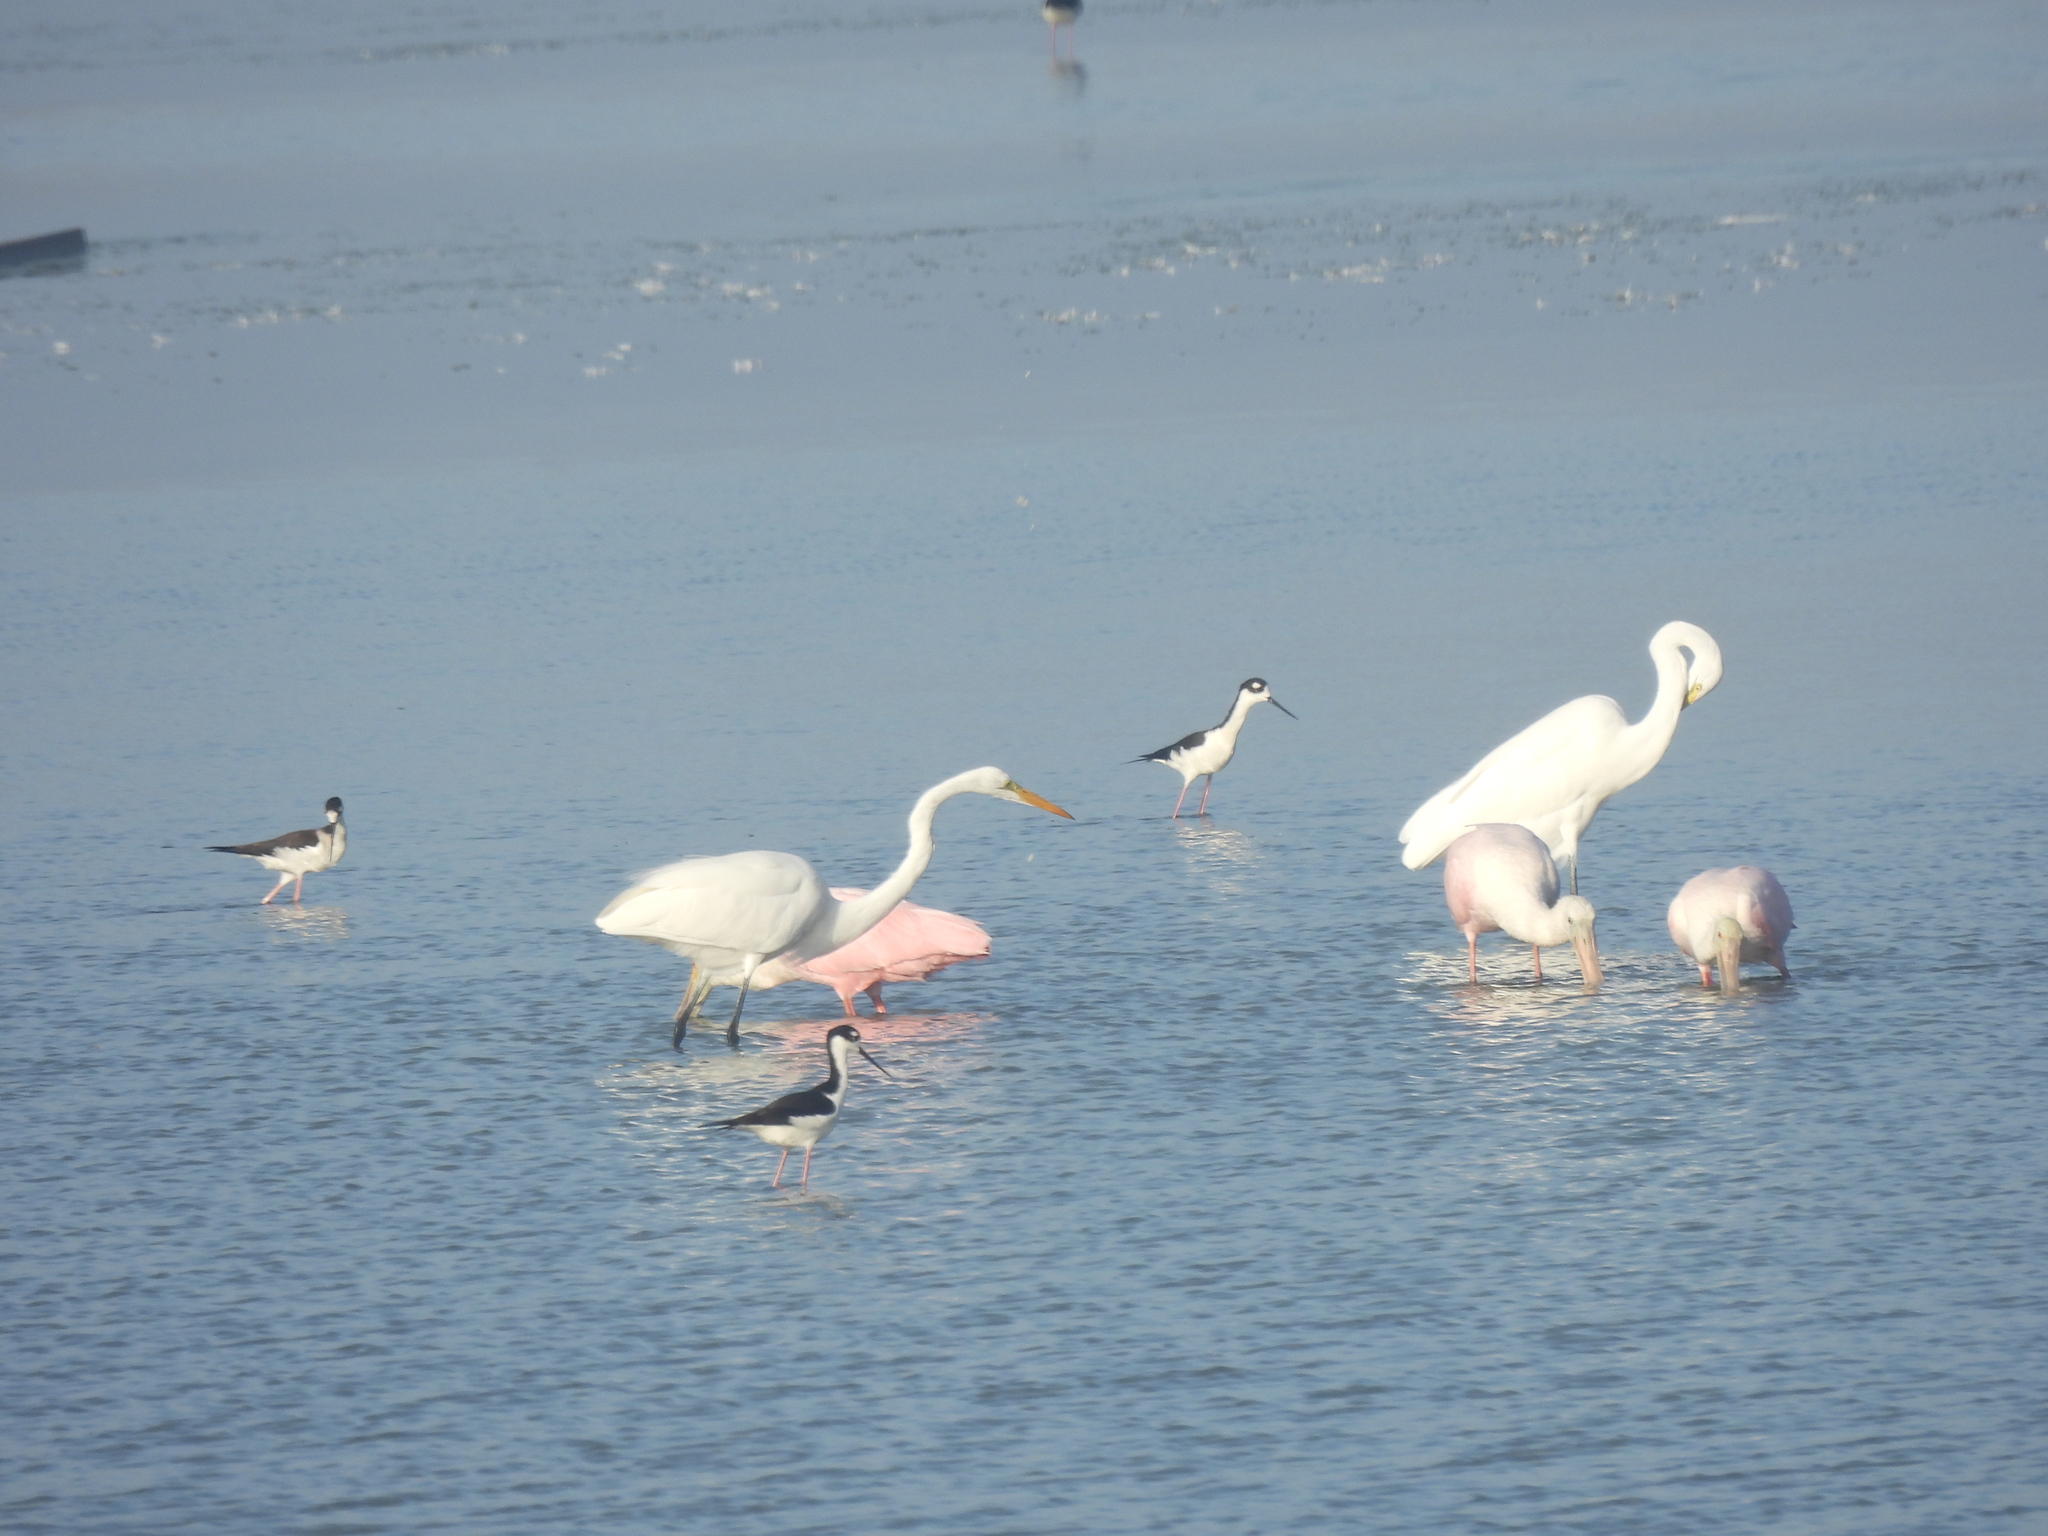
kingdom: Animalia
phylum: Chordata
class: Aves
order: Charadriiformes
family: Recurvirostridae
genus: Himantopus
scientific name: Himantopus mexicanus
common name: Black-necked stilt
